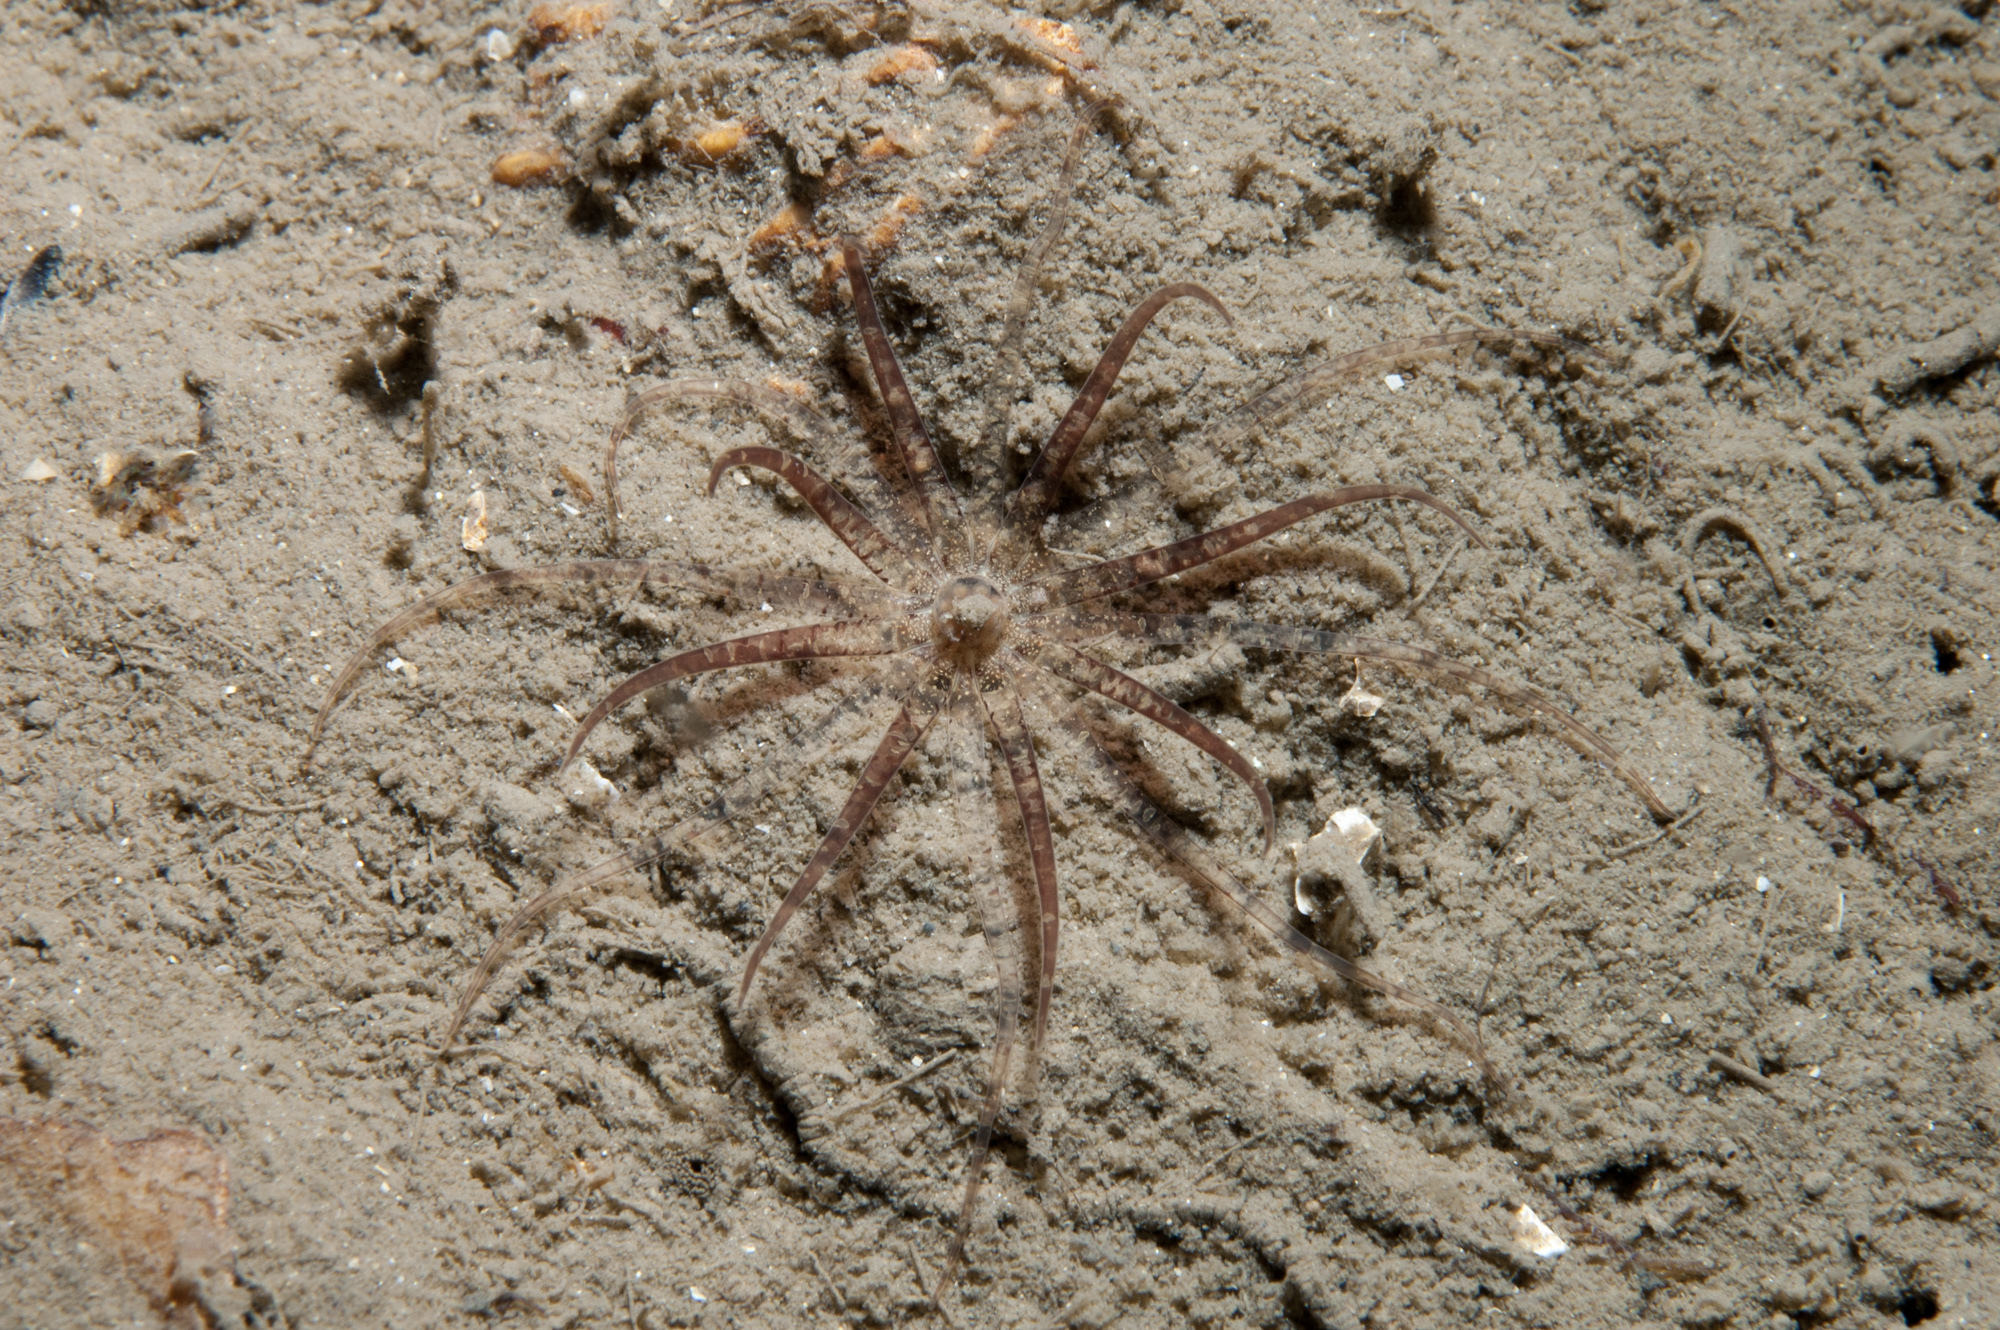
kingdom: Animalia
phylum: Cnidaria
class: Anthozoa
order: Actiniaria
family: Edwardsiidae
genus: Edwardsia
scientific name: Edwardsia claparedii
